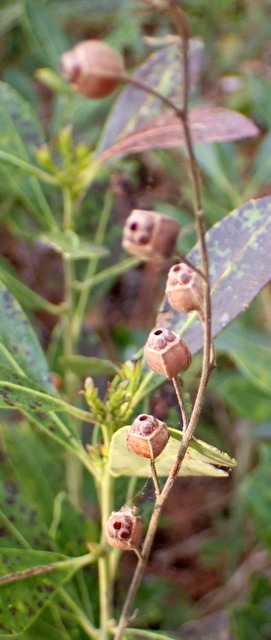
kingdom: Plantae
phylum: Tracheophyta
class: Magnoliopsida
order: Myrtales
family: Onagraceae
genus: Ludwigia
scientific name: Ludwigia alternifolia
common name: Rattlebox
